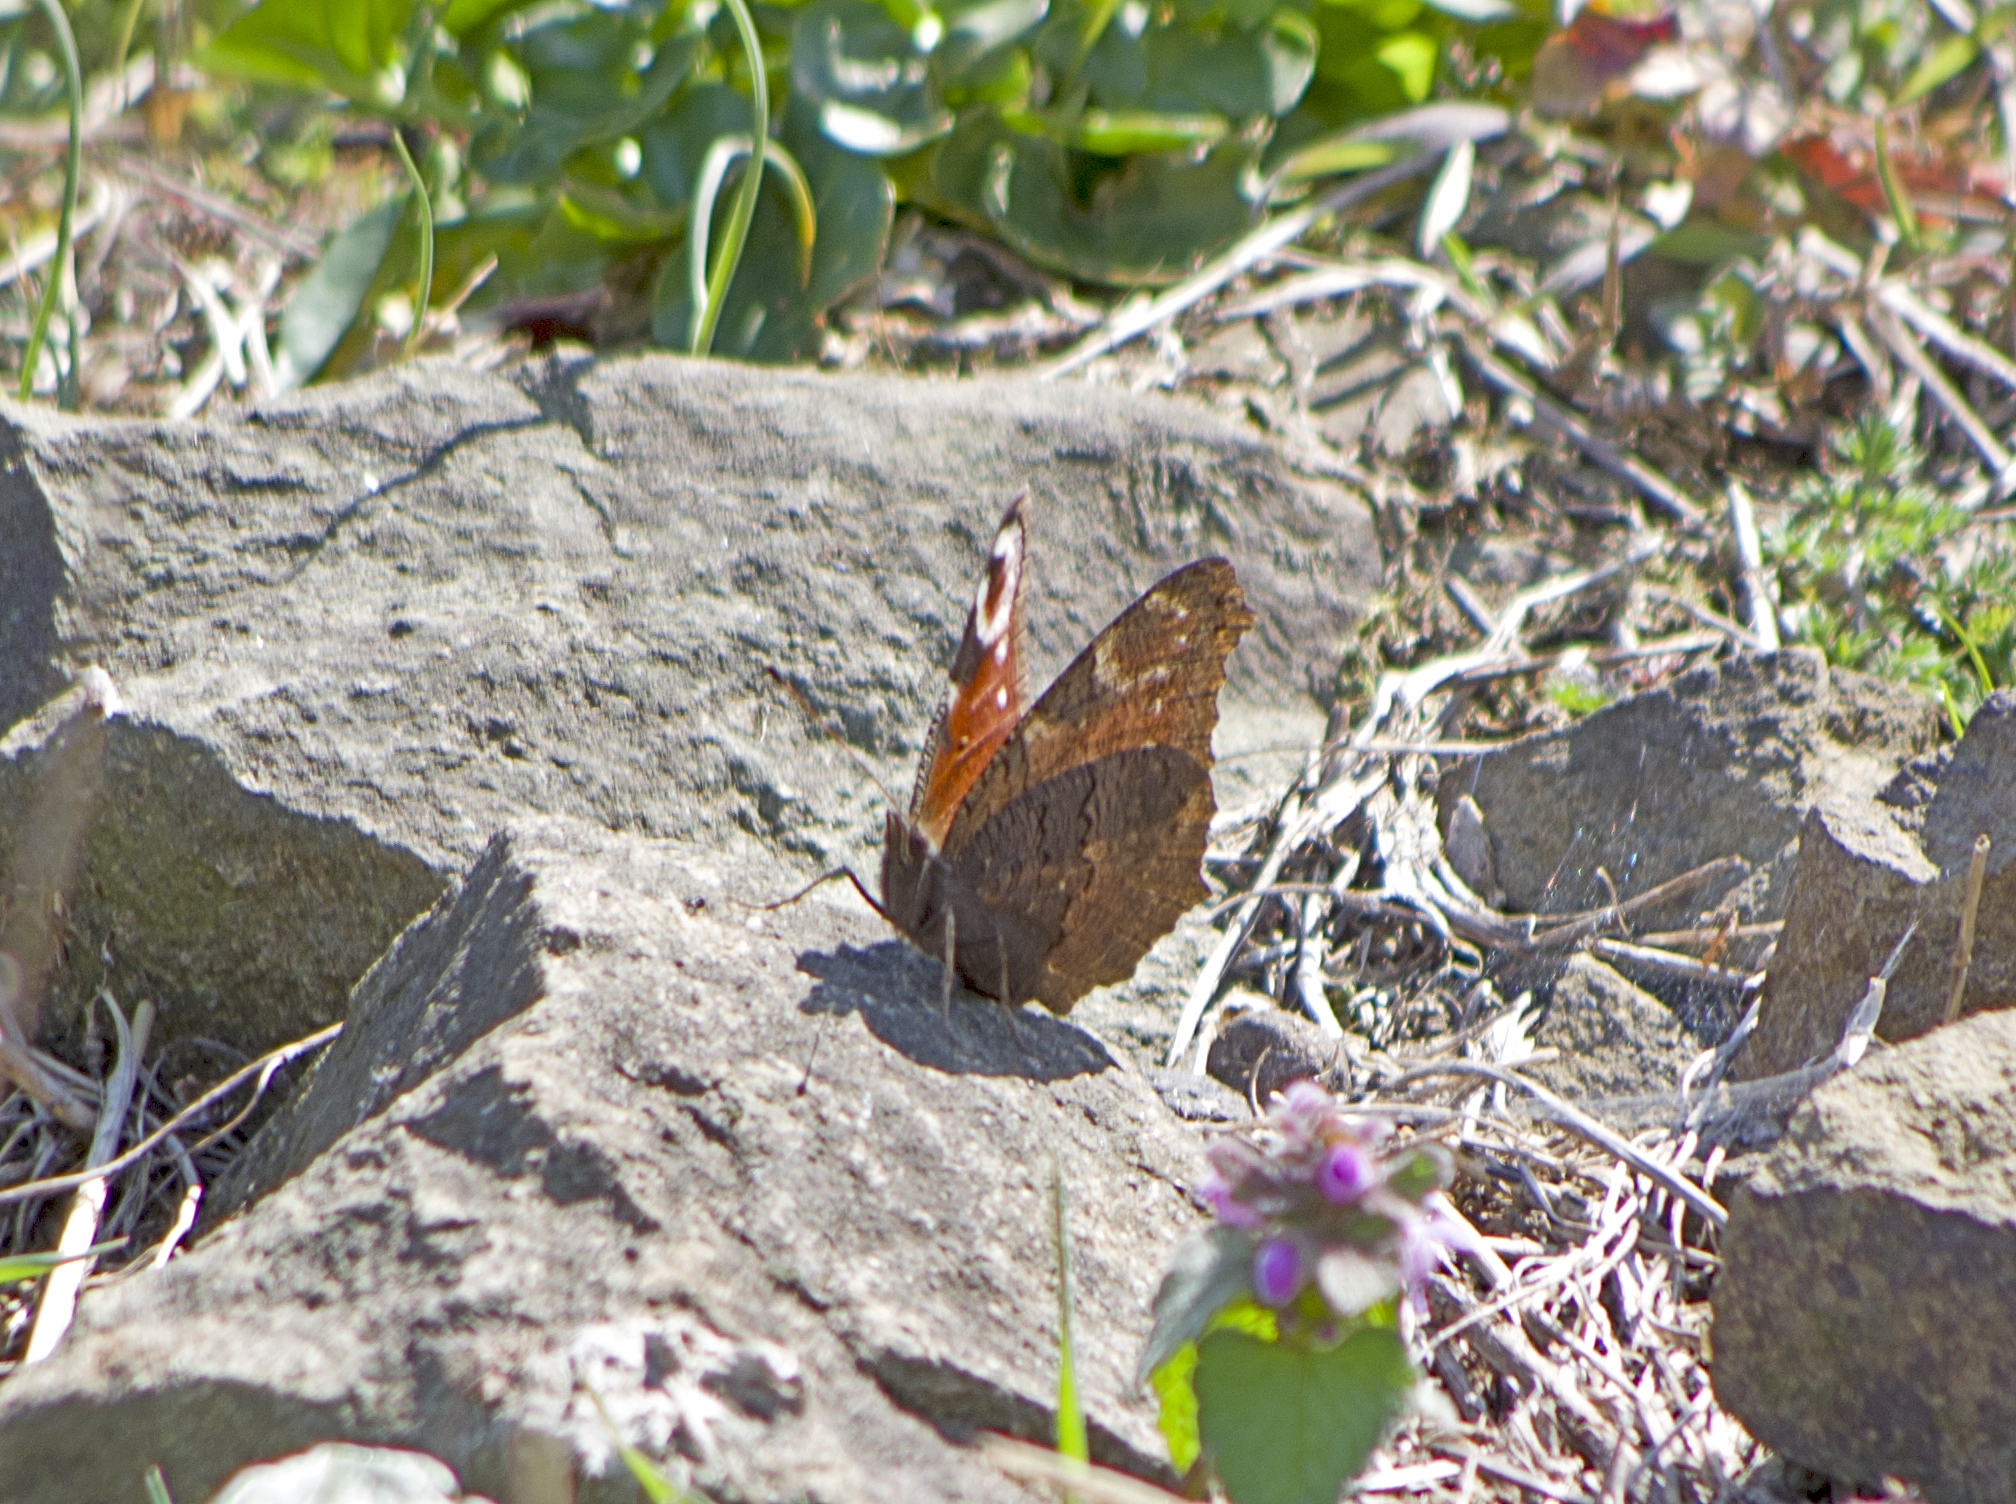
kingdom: Animalia
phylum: Arthropoda
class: Insecta
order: Lepidoptera
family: Nymphalidae
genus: Aglais
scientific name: Aglais io
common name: Peacock
